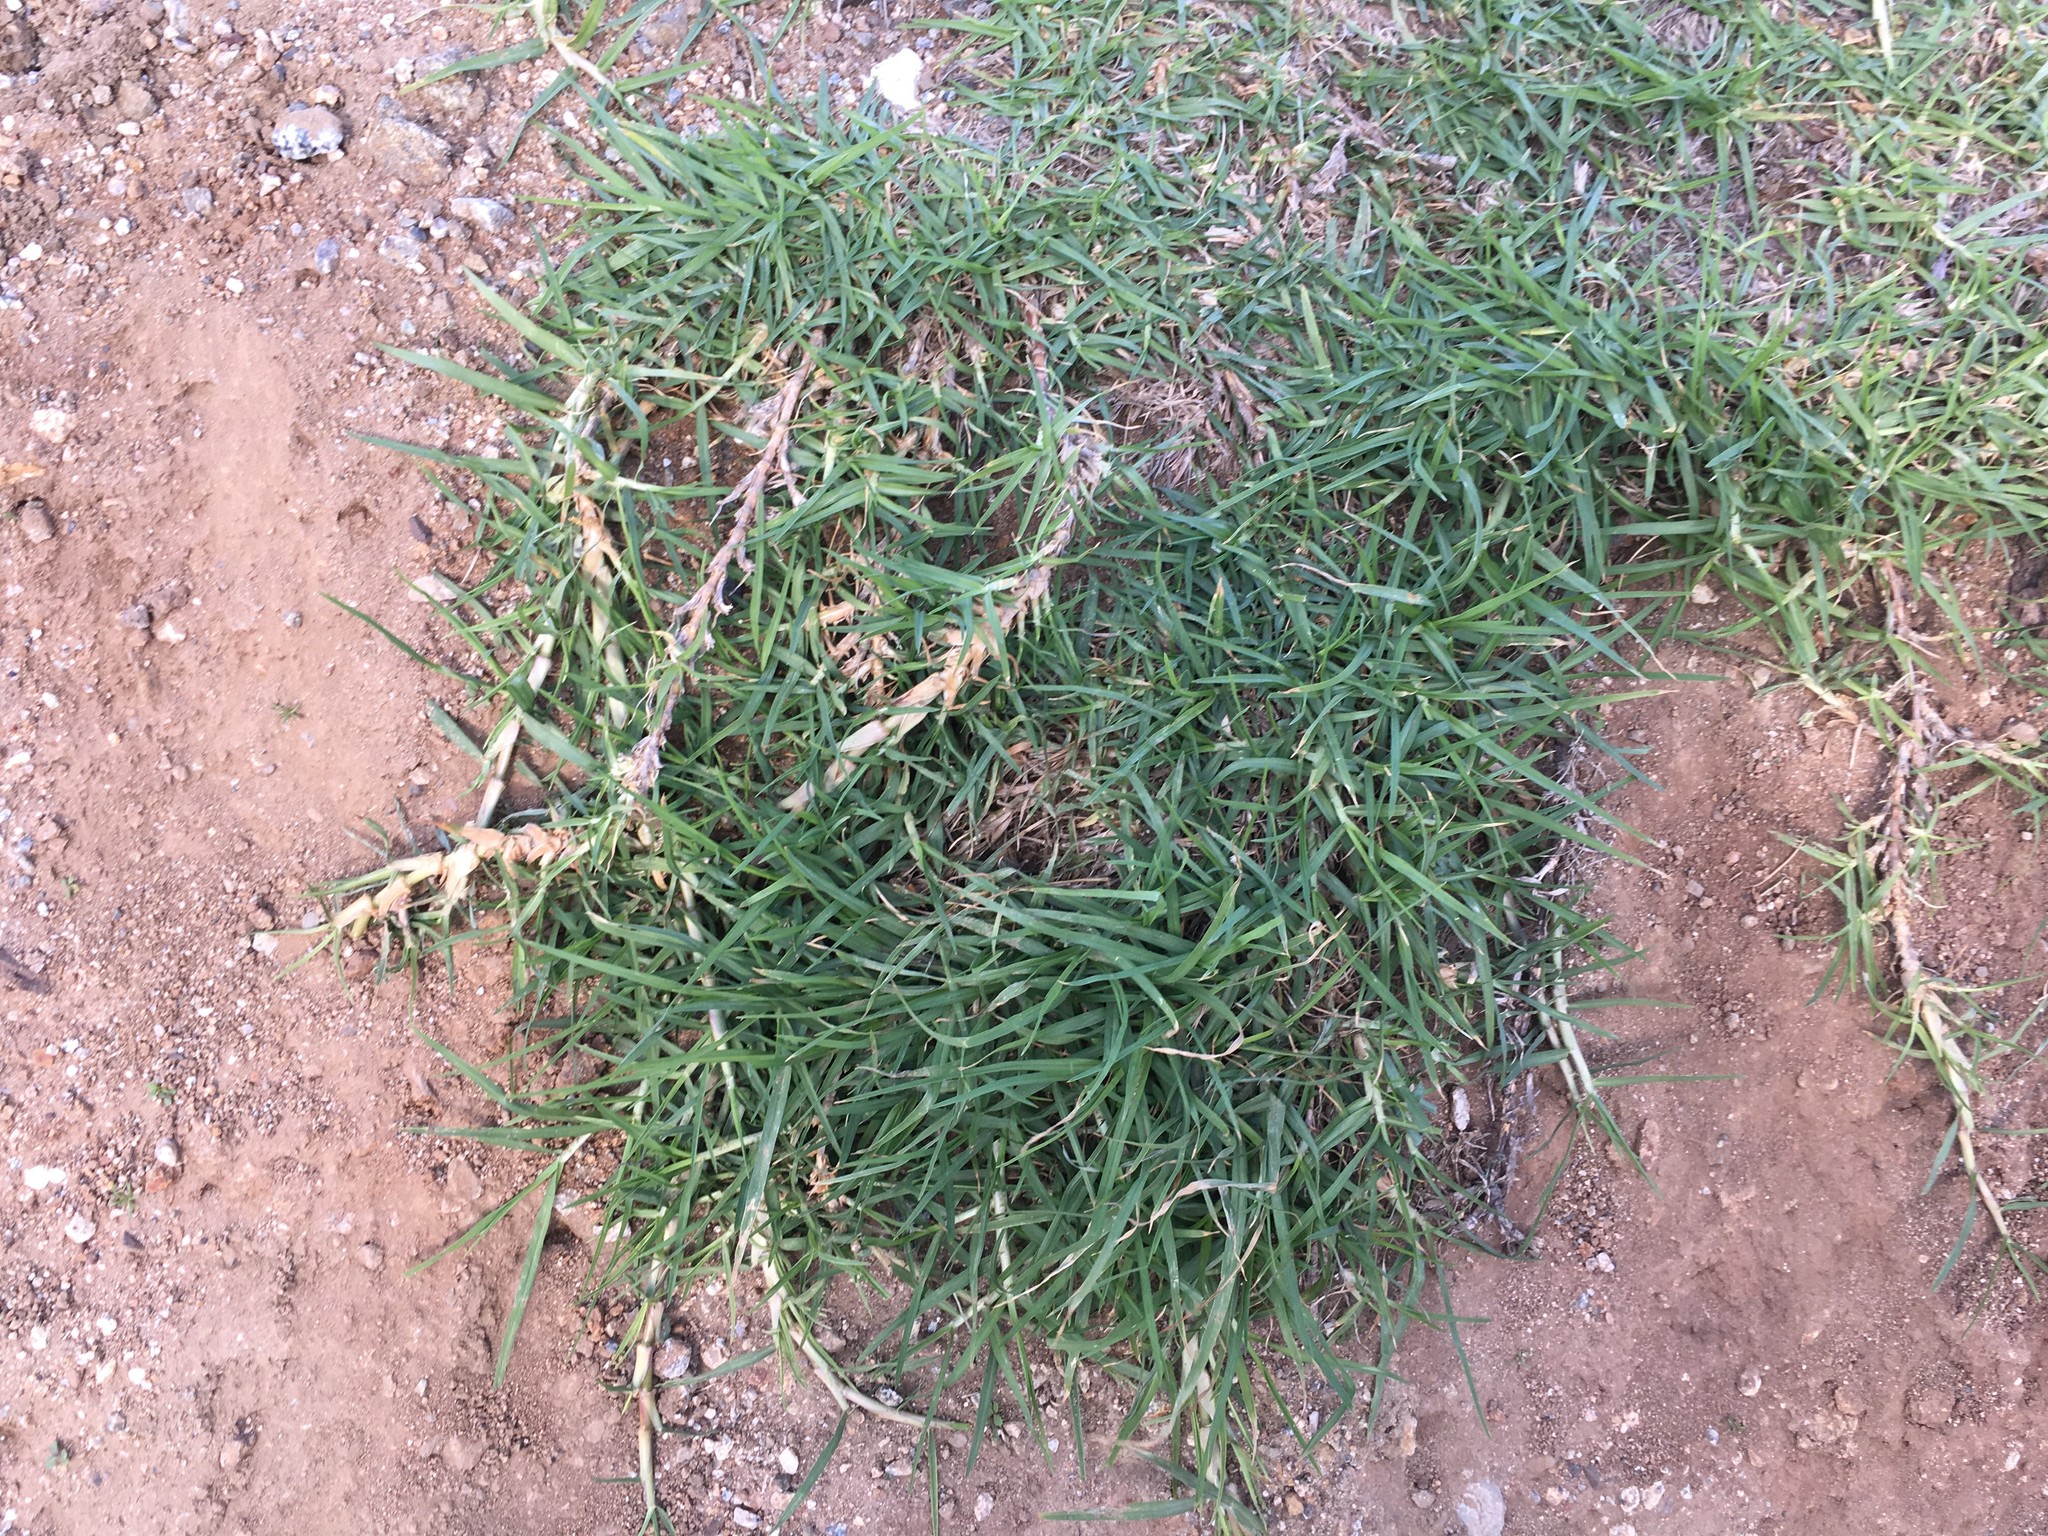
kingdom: Plantae
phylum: Tracheophyta
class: Liliopsida
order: Poales
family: Poaceae
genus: Cenchrus
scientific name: Cenchrus clandestinus
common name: Kikuyugrass
